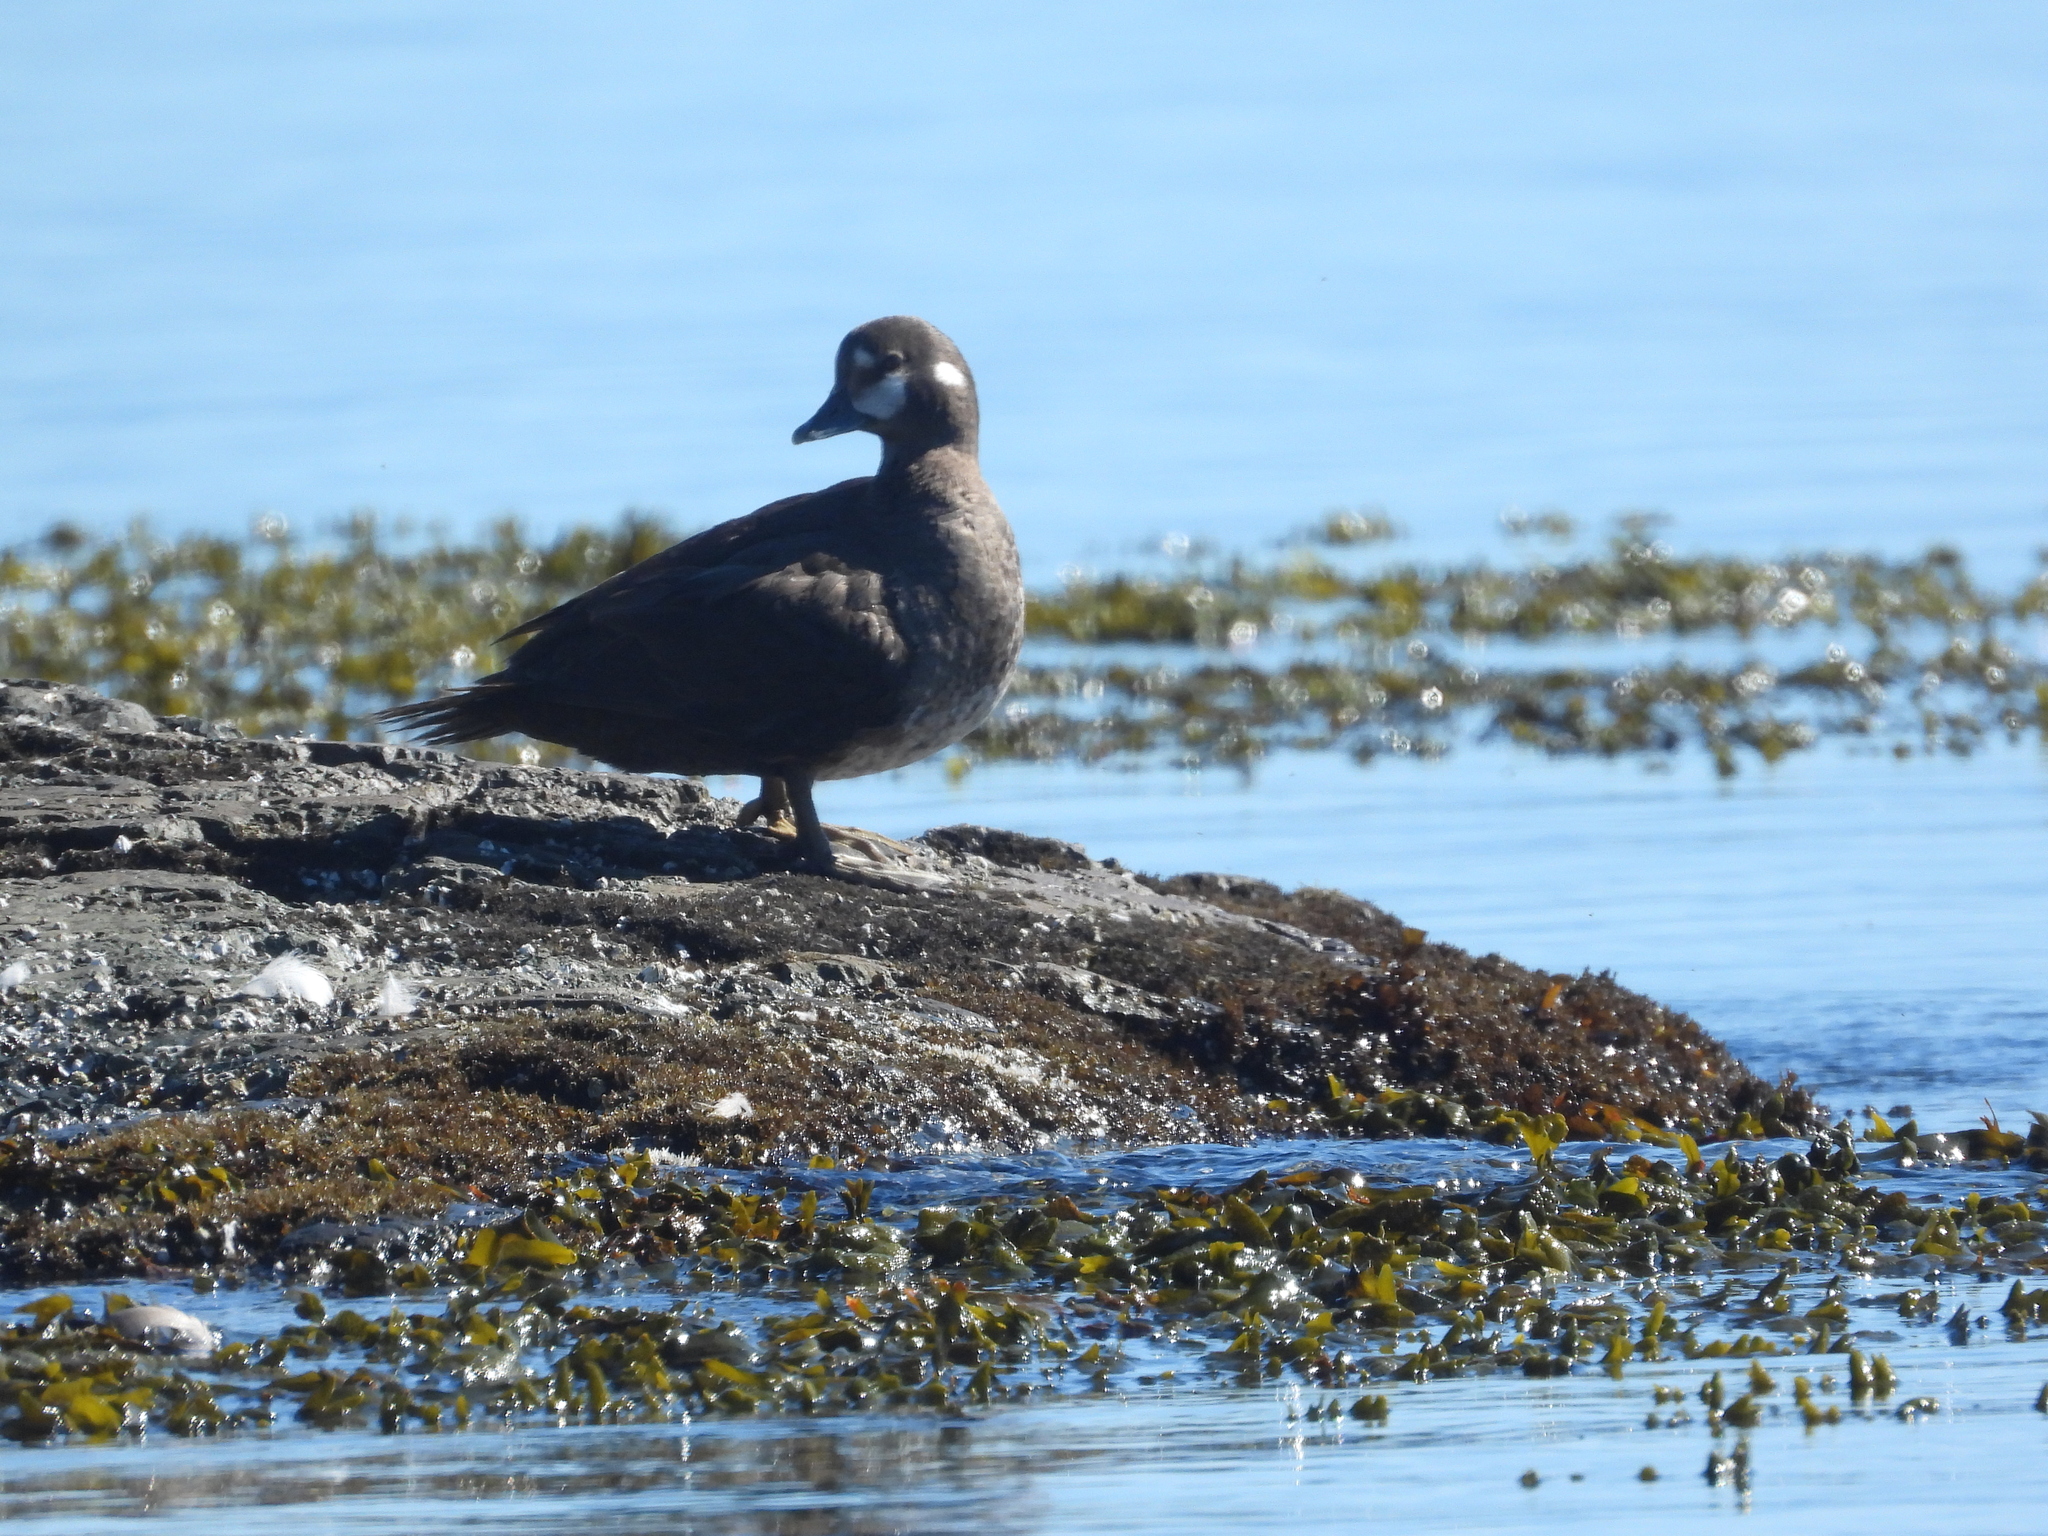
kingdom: Animalia
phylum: Chordata
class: Aves
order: Anseriformes
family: Anatidae
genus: Histrionicus
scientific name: Histrionicus histrionicus
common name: Harlequin duck
